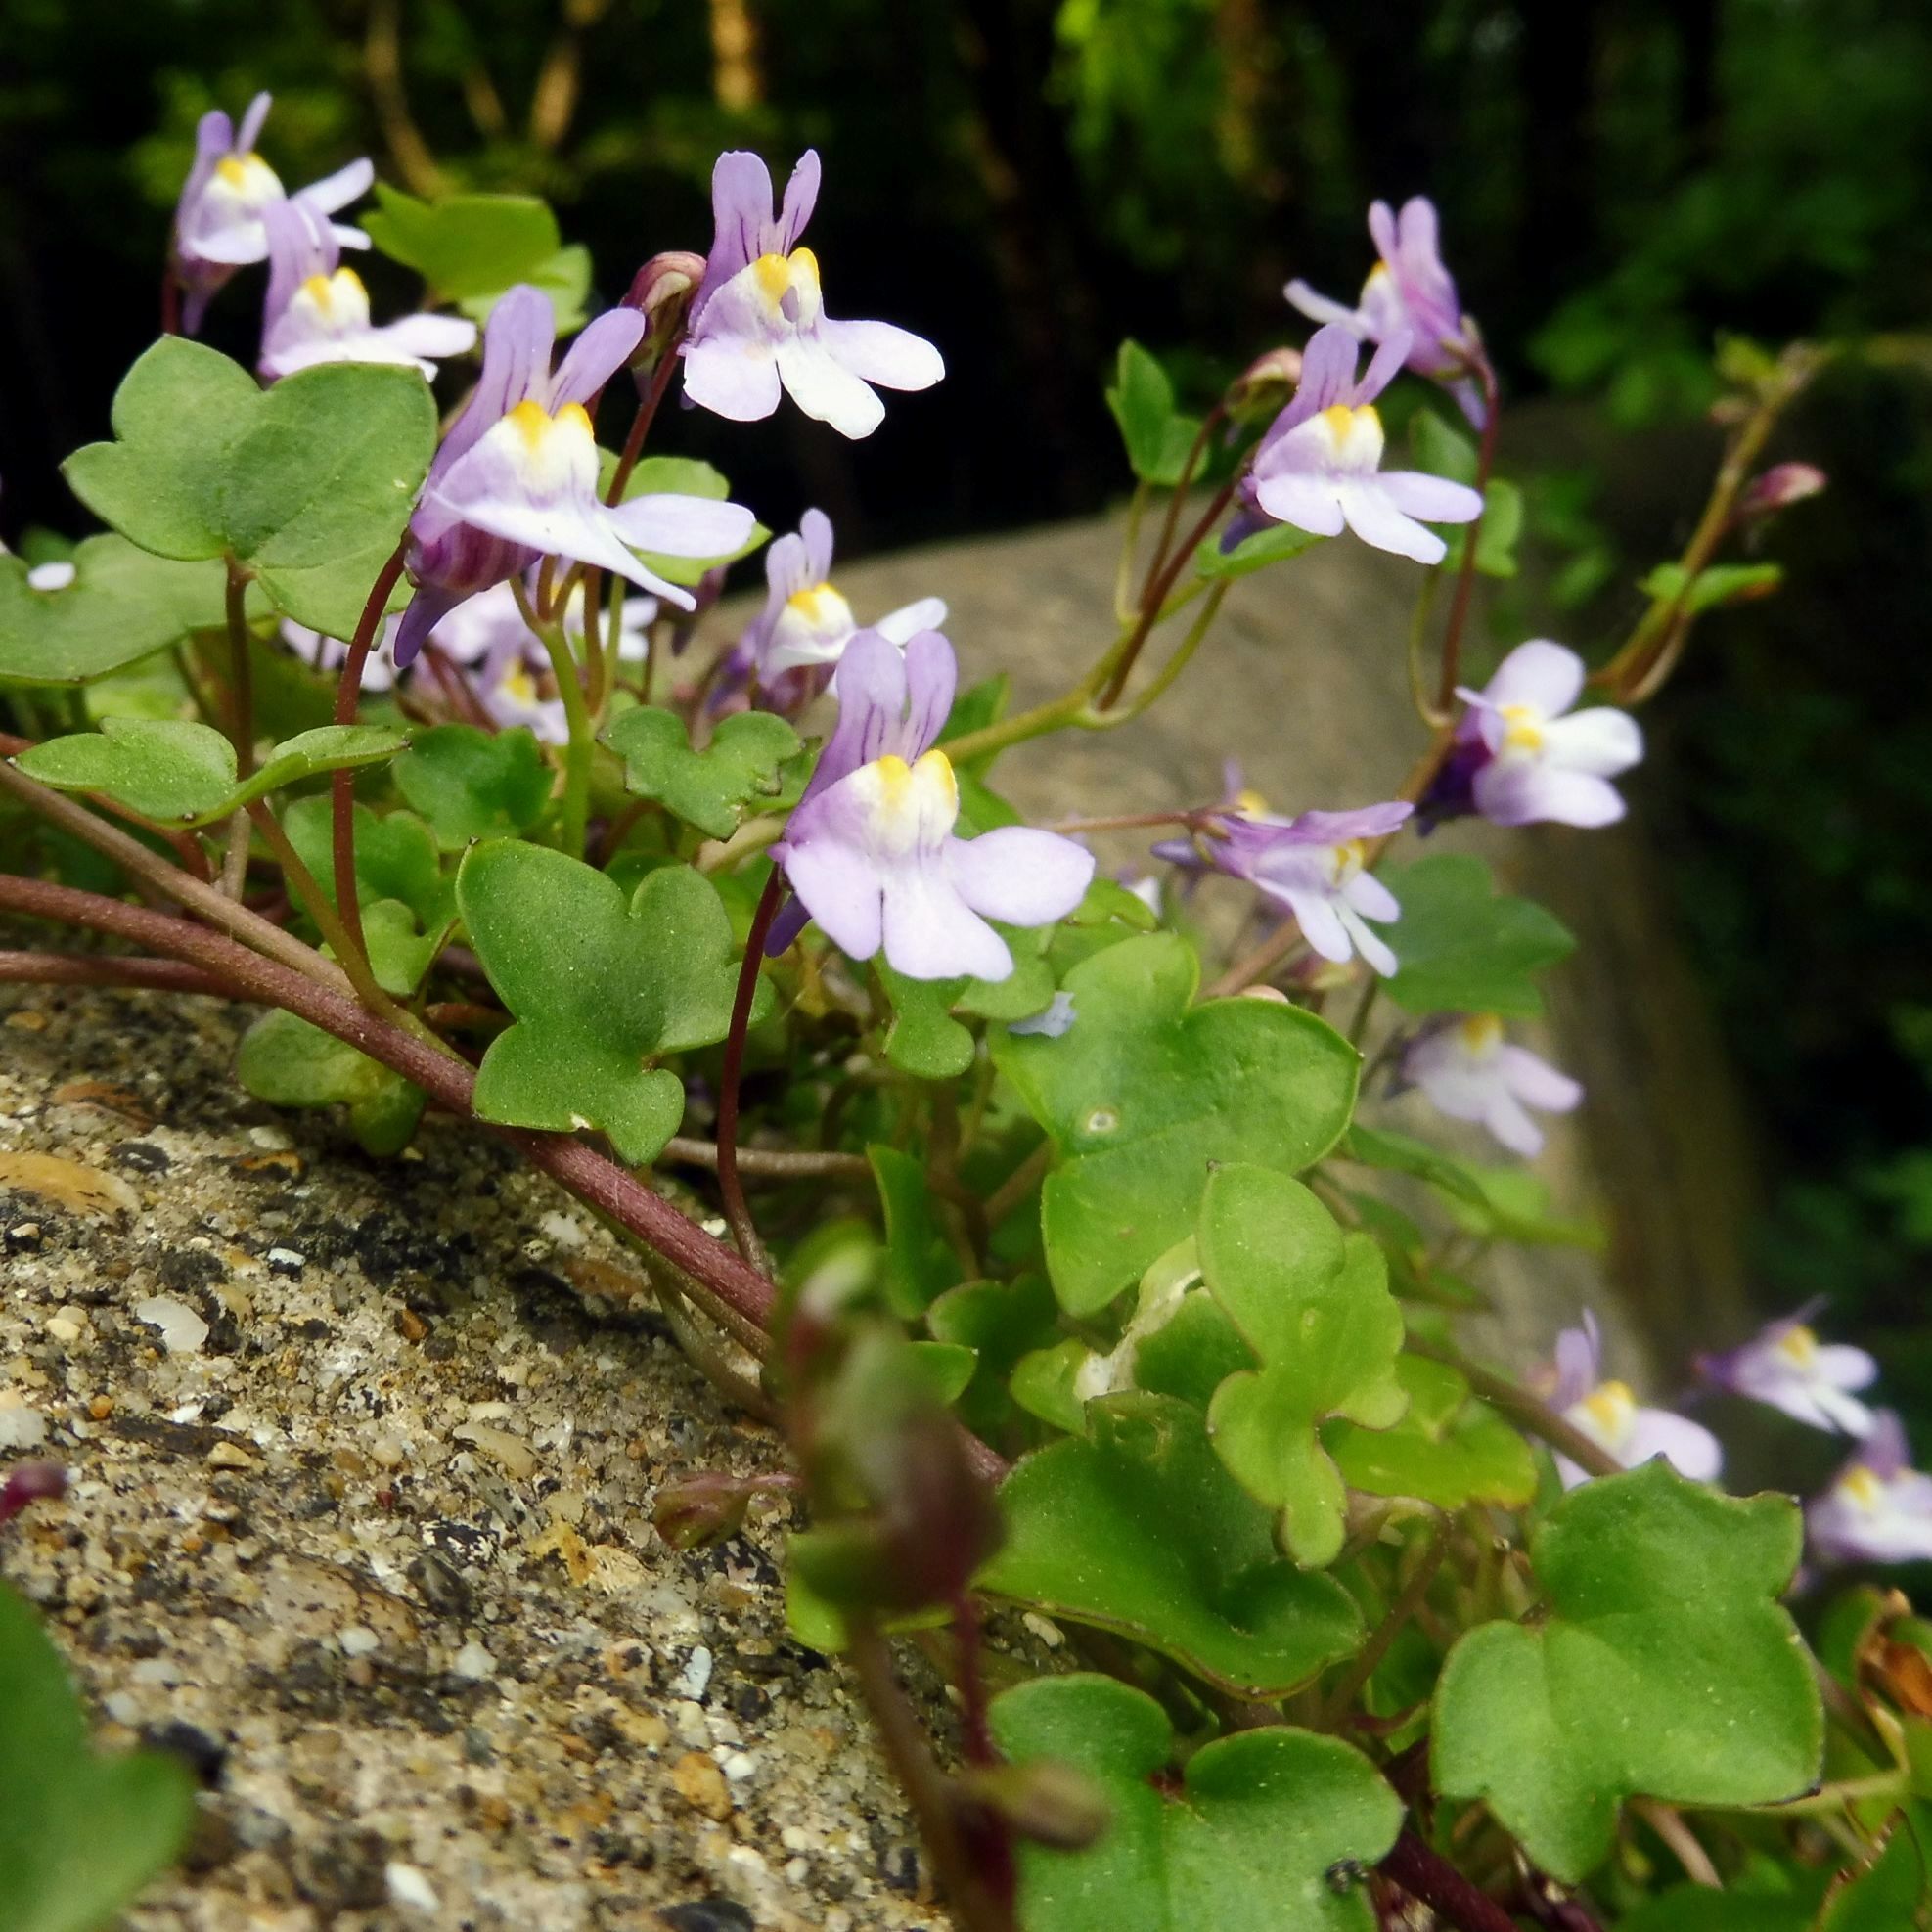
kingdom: Plantae
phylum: Tracheophyta
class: Magnoliopsida
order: Lamiales
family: Plantaginaceae
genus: Cymbalaria
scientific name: Cymbalaria muralis
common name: Ivy-leaved toadflax
